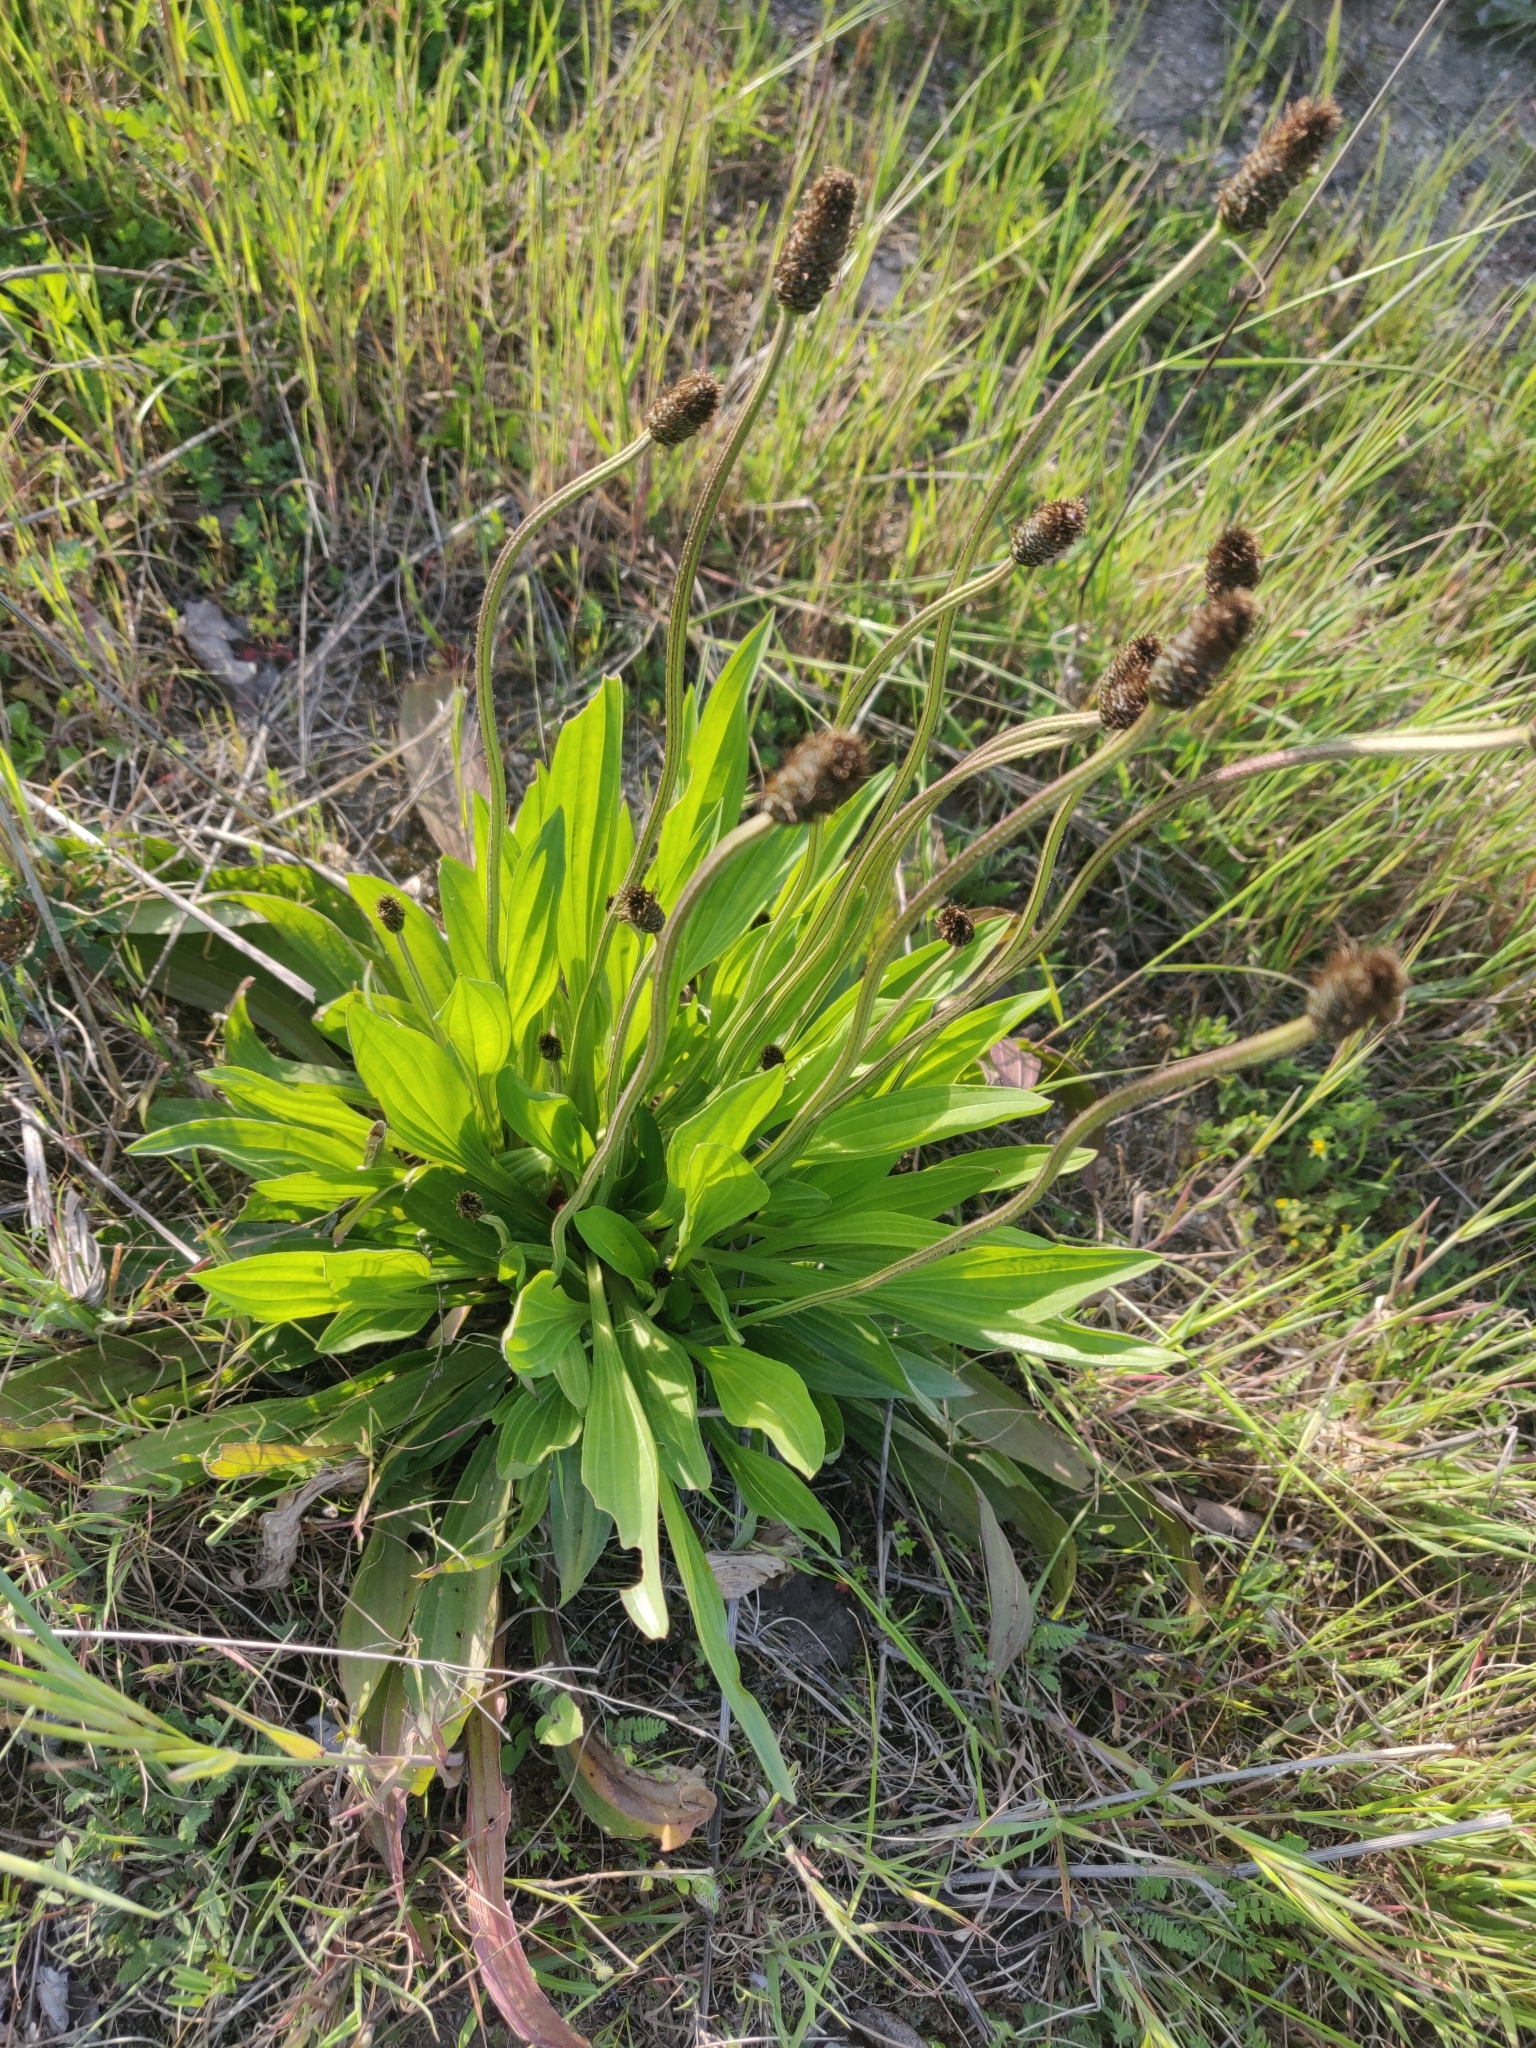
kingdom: Plantae
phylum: Tracheophyta
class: Magnoliopsida
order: Lamiales
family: Plantaginaceae
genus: Plantago
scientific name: Plantago lanceolata
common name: Ribwort plantain
